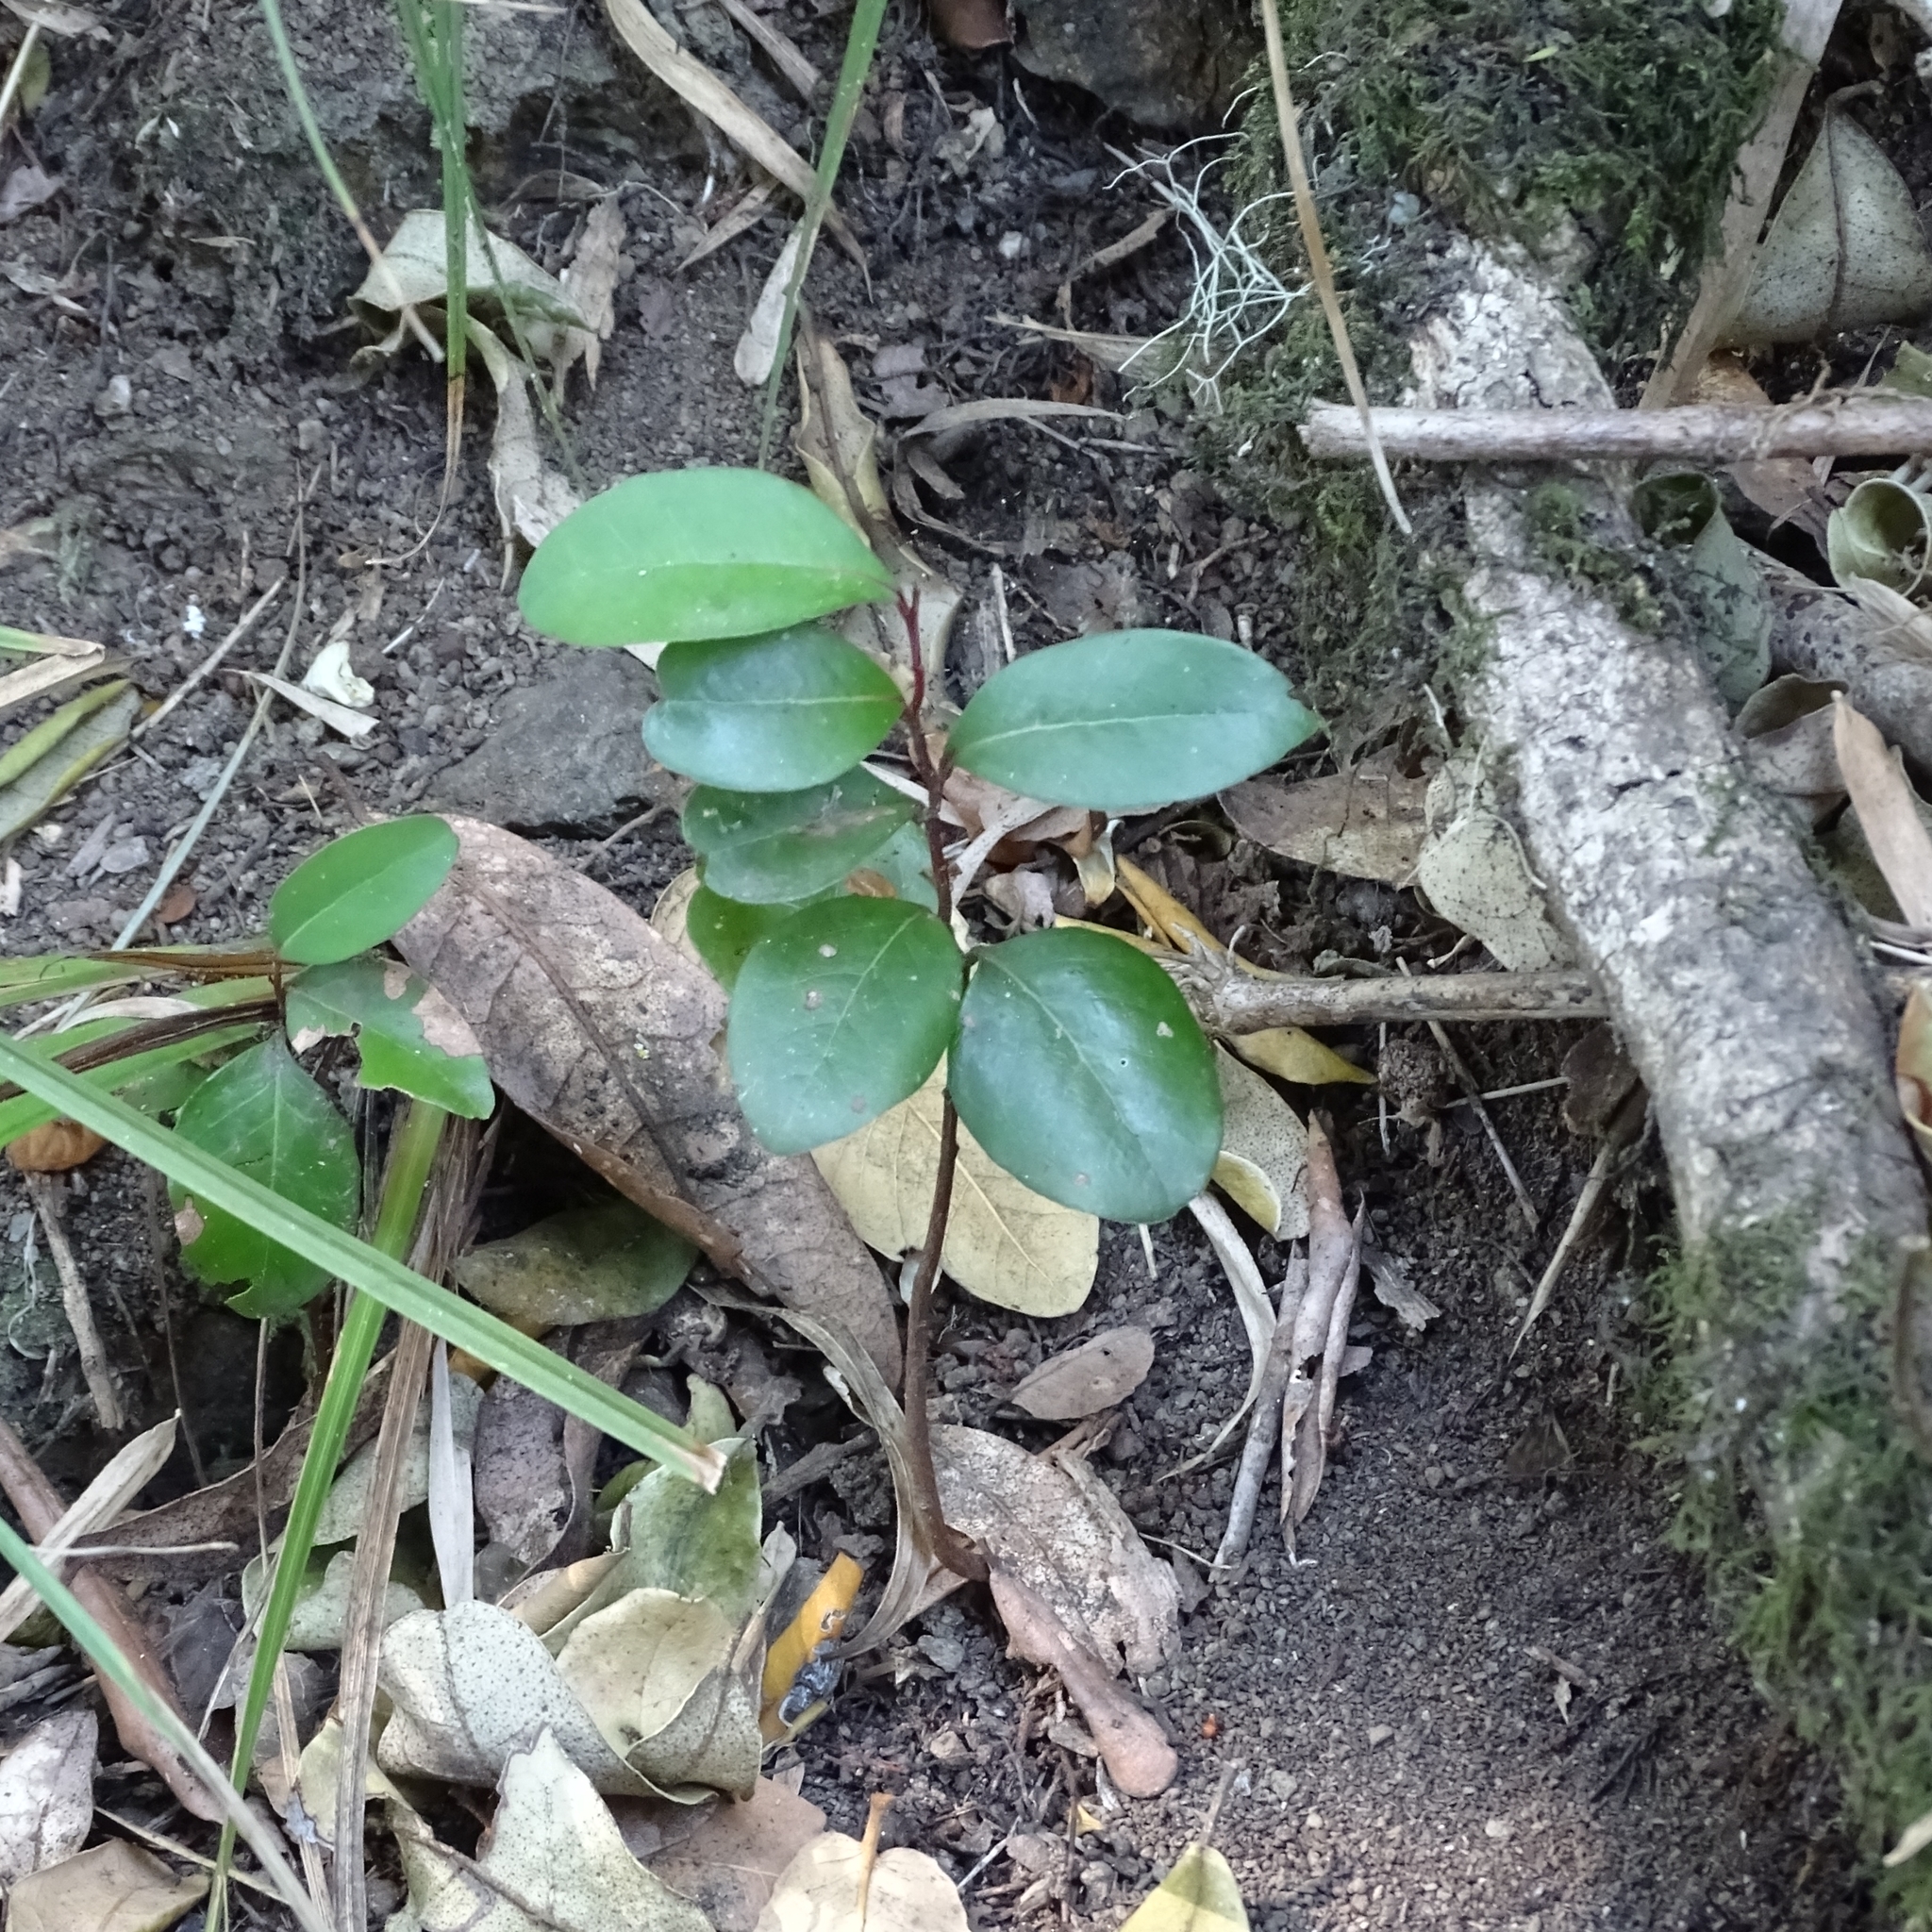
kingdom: Plantae
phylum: Tracheophyta
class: Magnoliopsida
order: Laurales
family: Lauraceae
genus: Cryptocarya
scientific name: Cryptocarya alba
